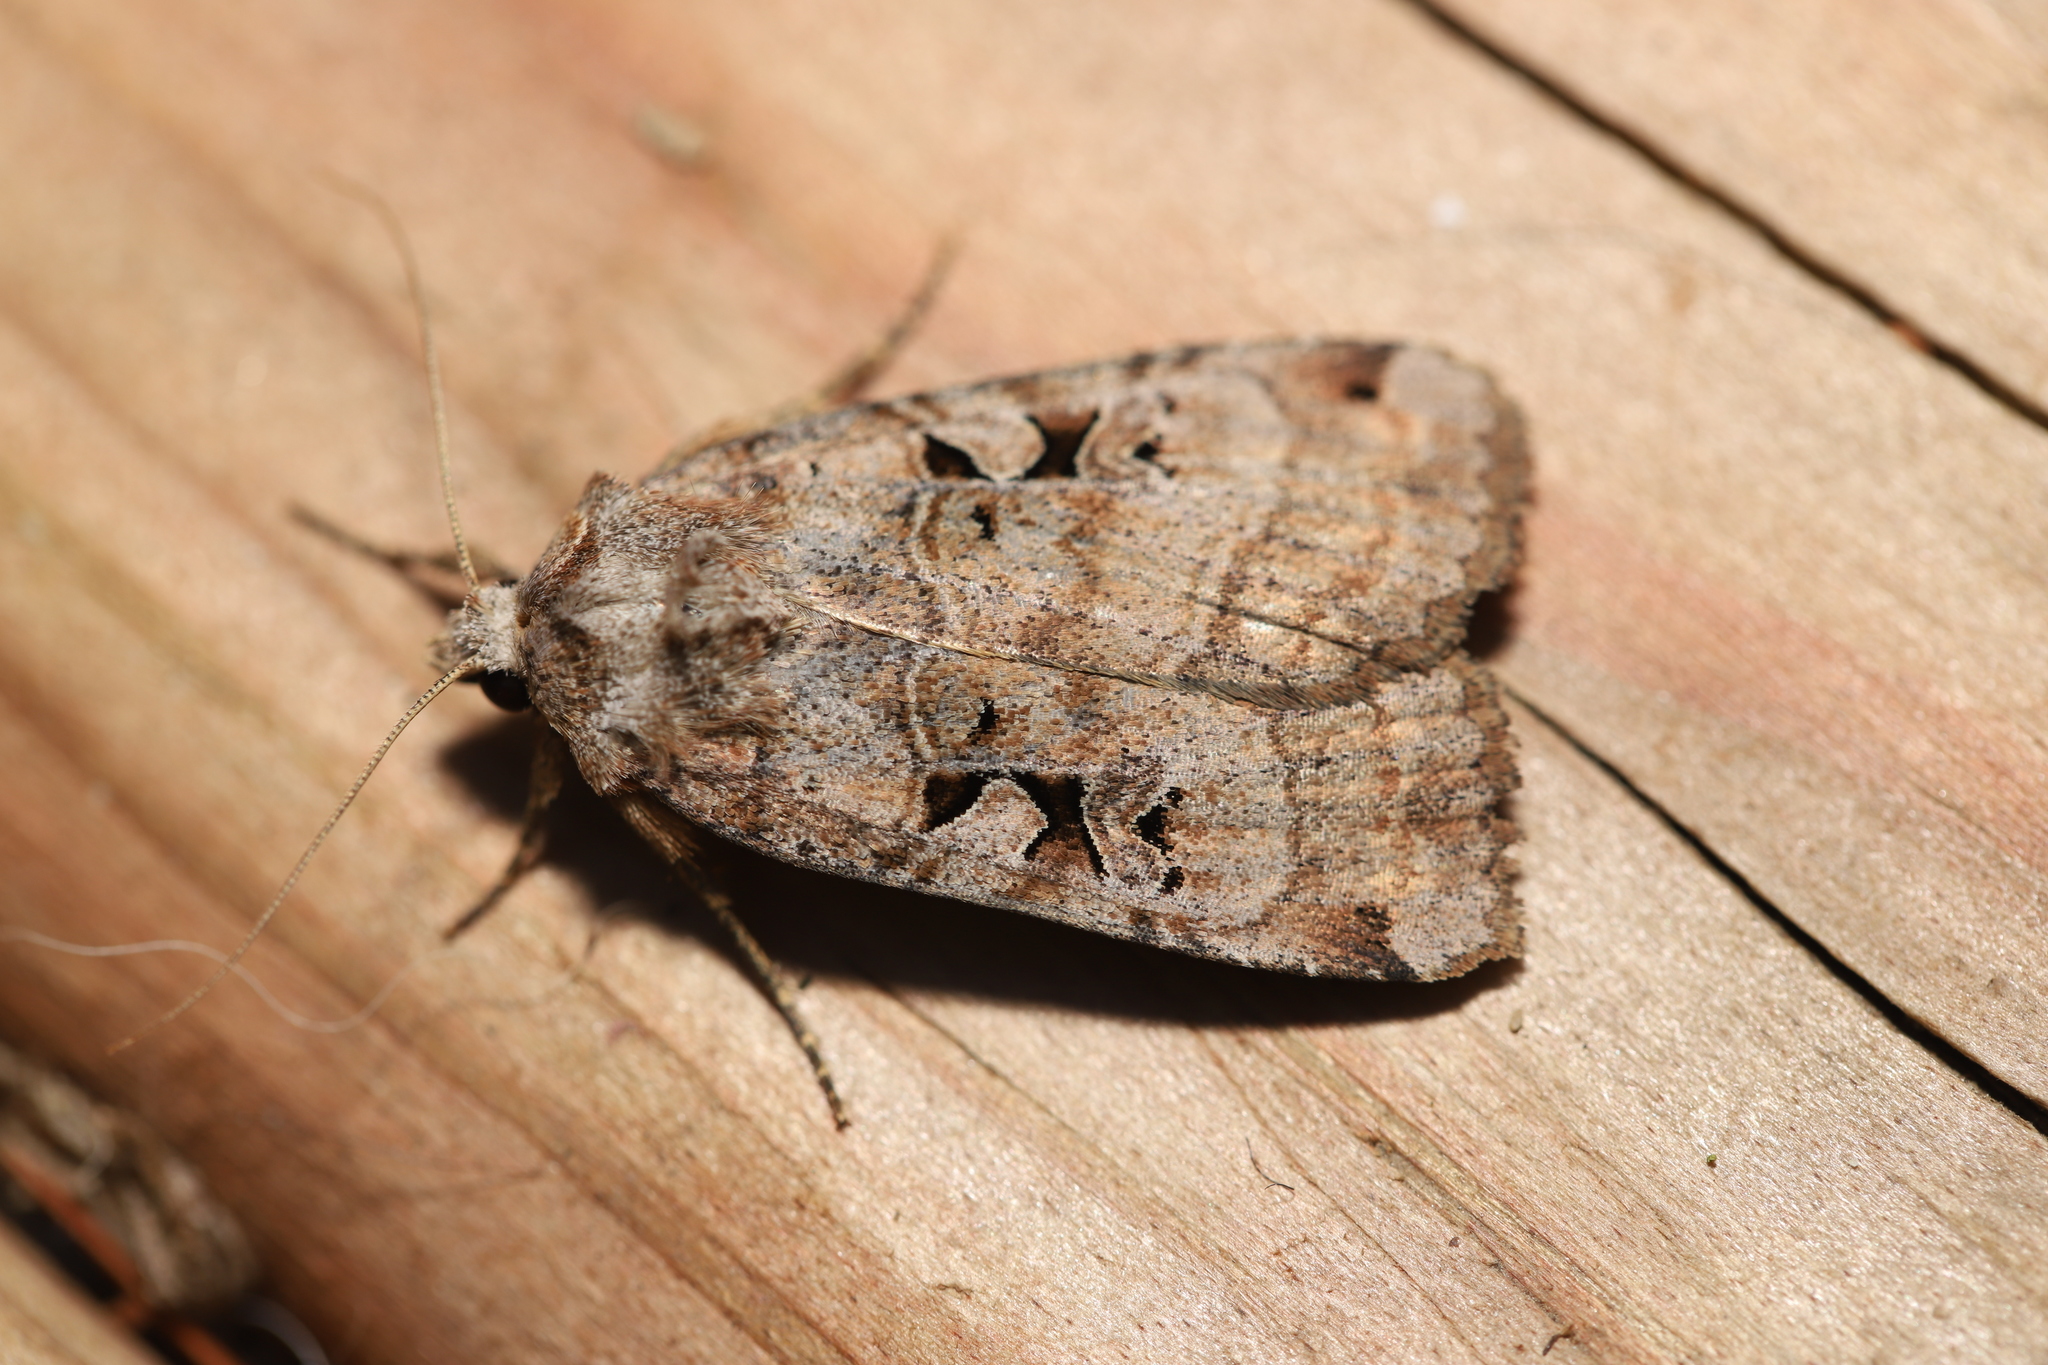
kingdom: Animalia
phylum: Arthropoda
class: Insecta
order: Lepidoptera
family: Noctuidae
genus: Xestia
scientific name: Xestia normaniana
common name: Norman's dart moth
